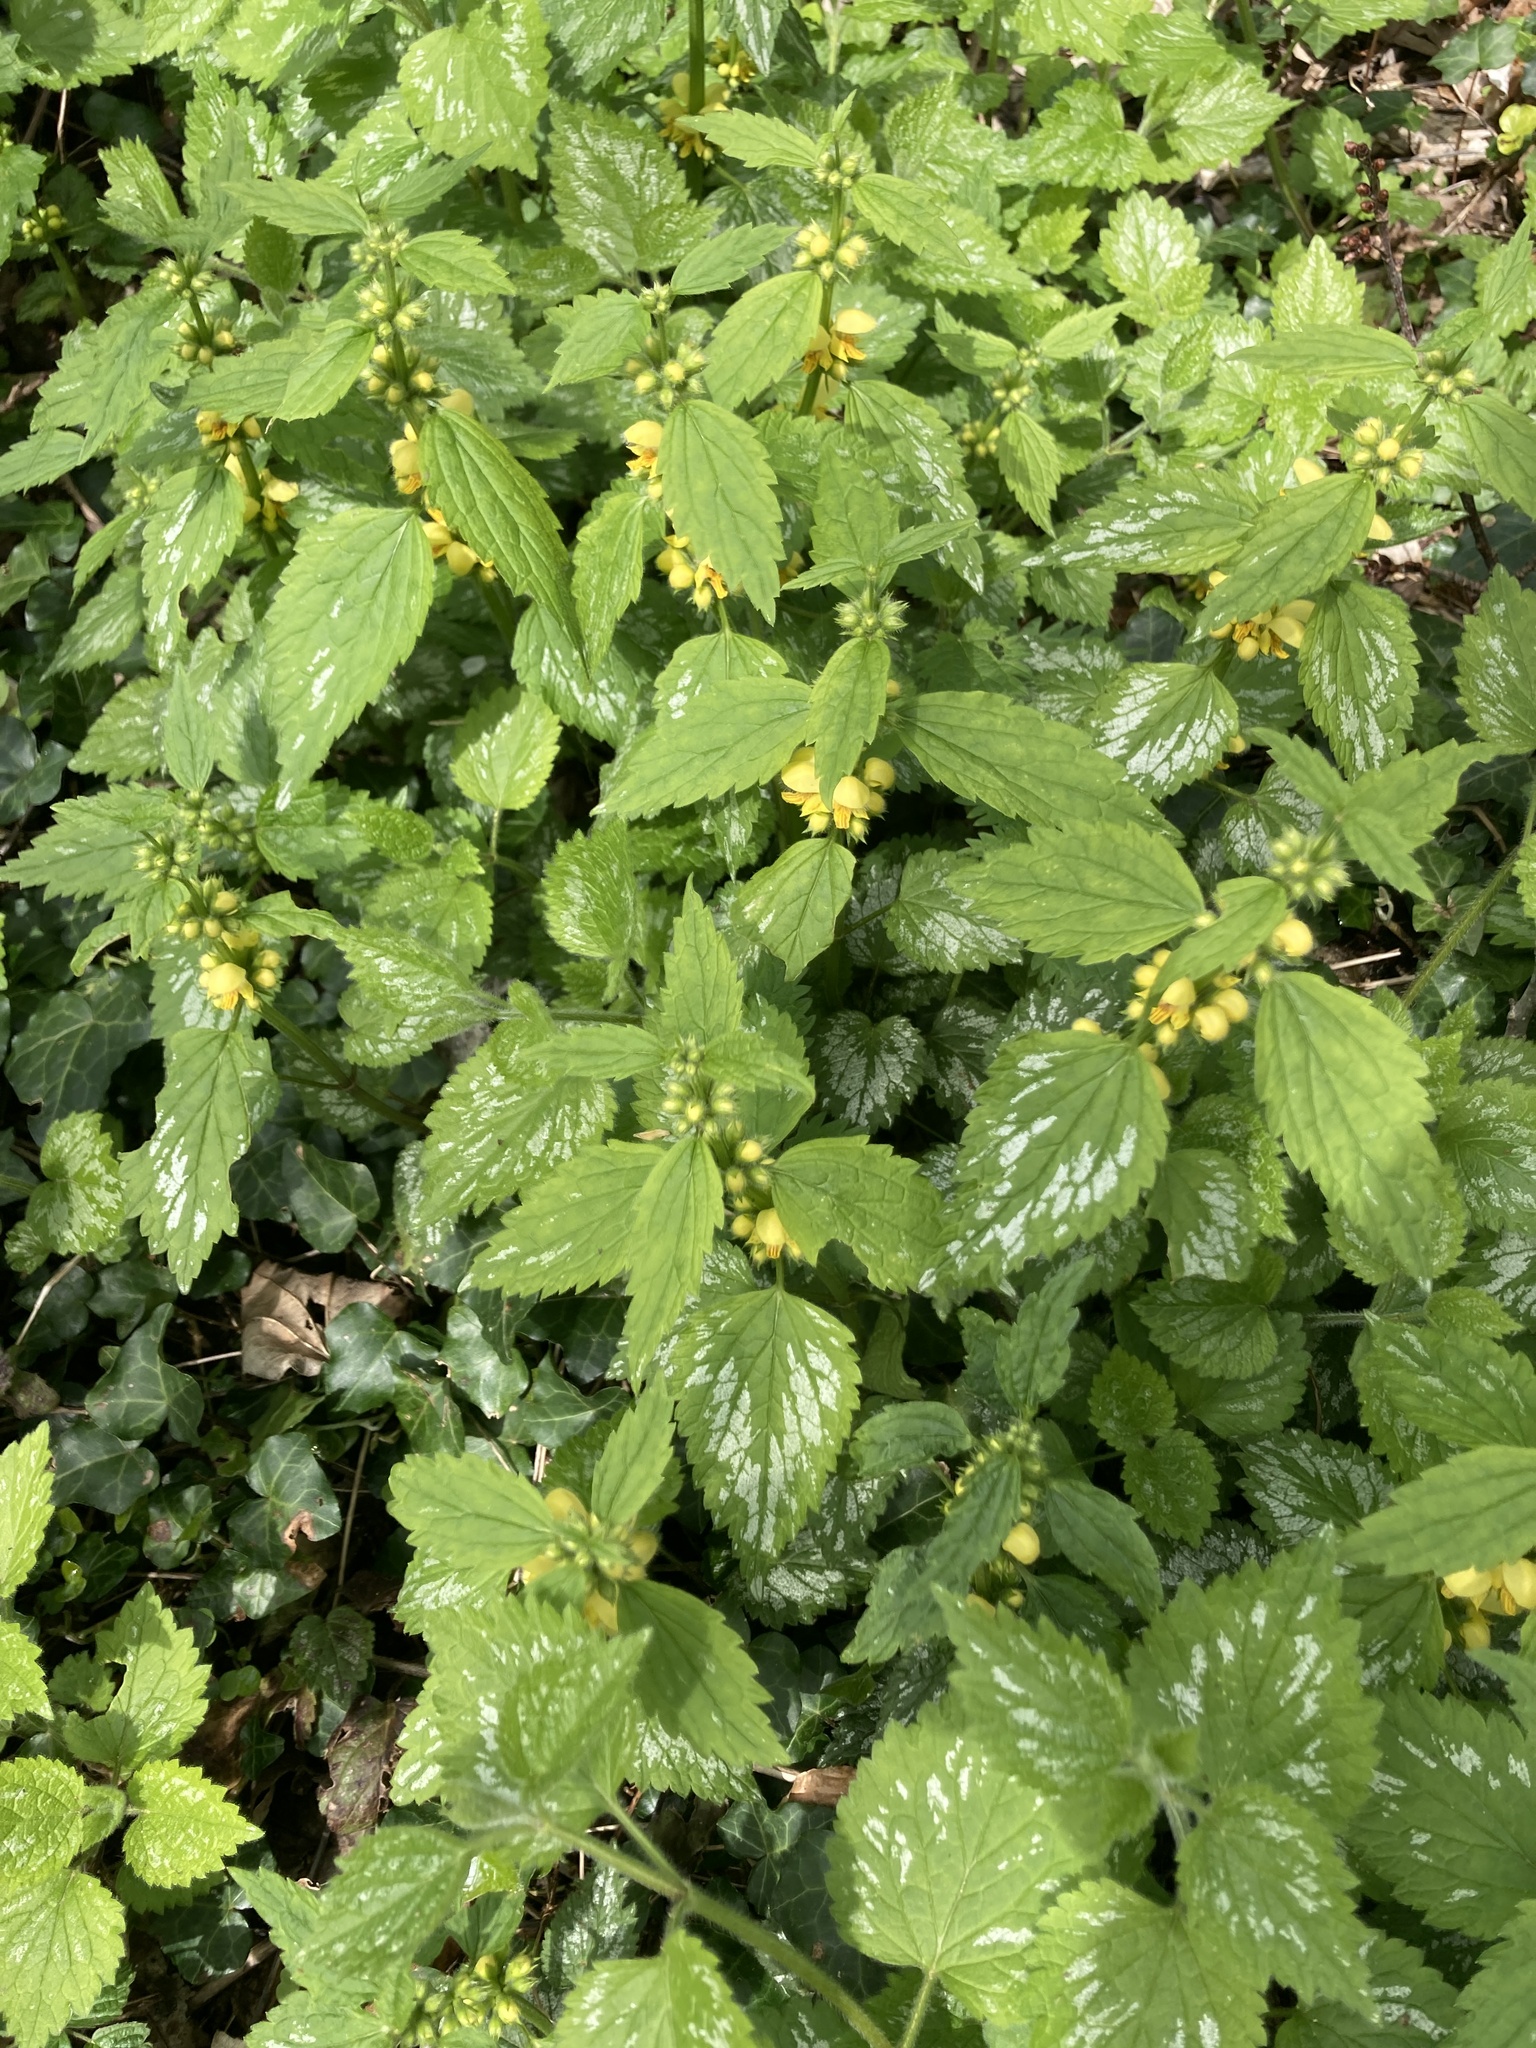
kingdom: Plantae
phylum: Tracheophyta
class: Magnoliopsida
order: Lamiales
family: Lamiaceae
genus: Lamium
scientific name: Lamium galeobdolon
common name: Yellow archangel
